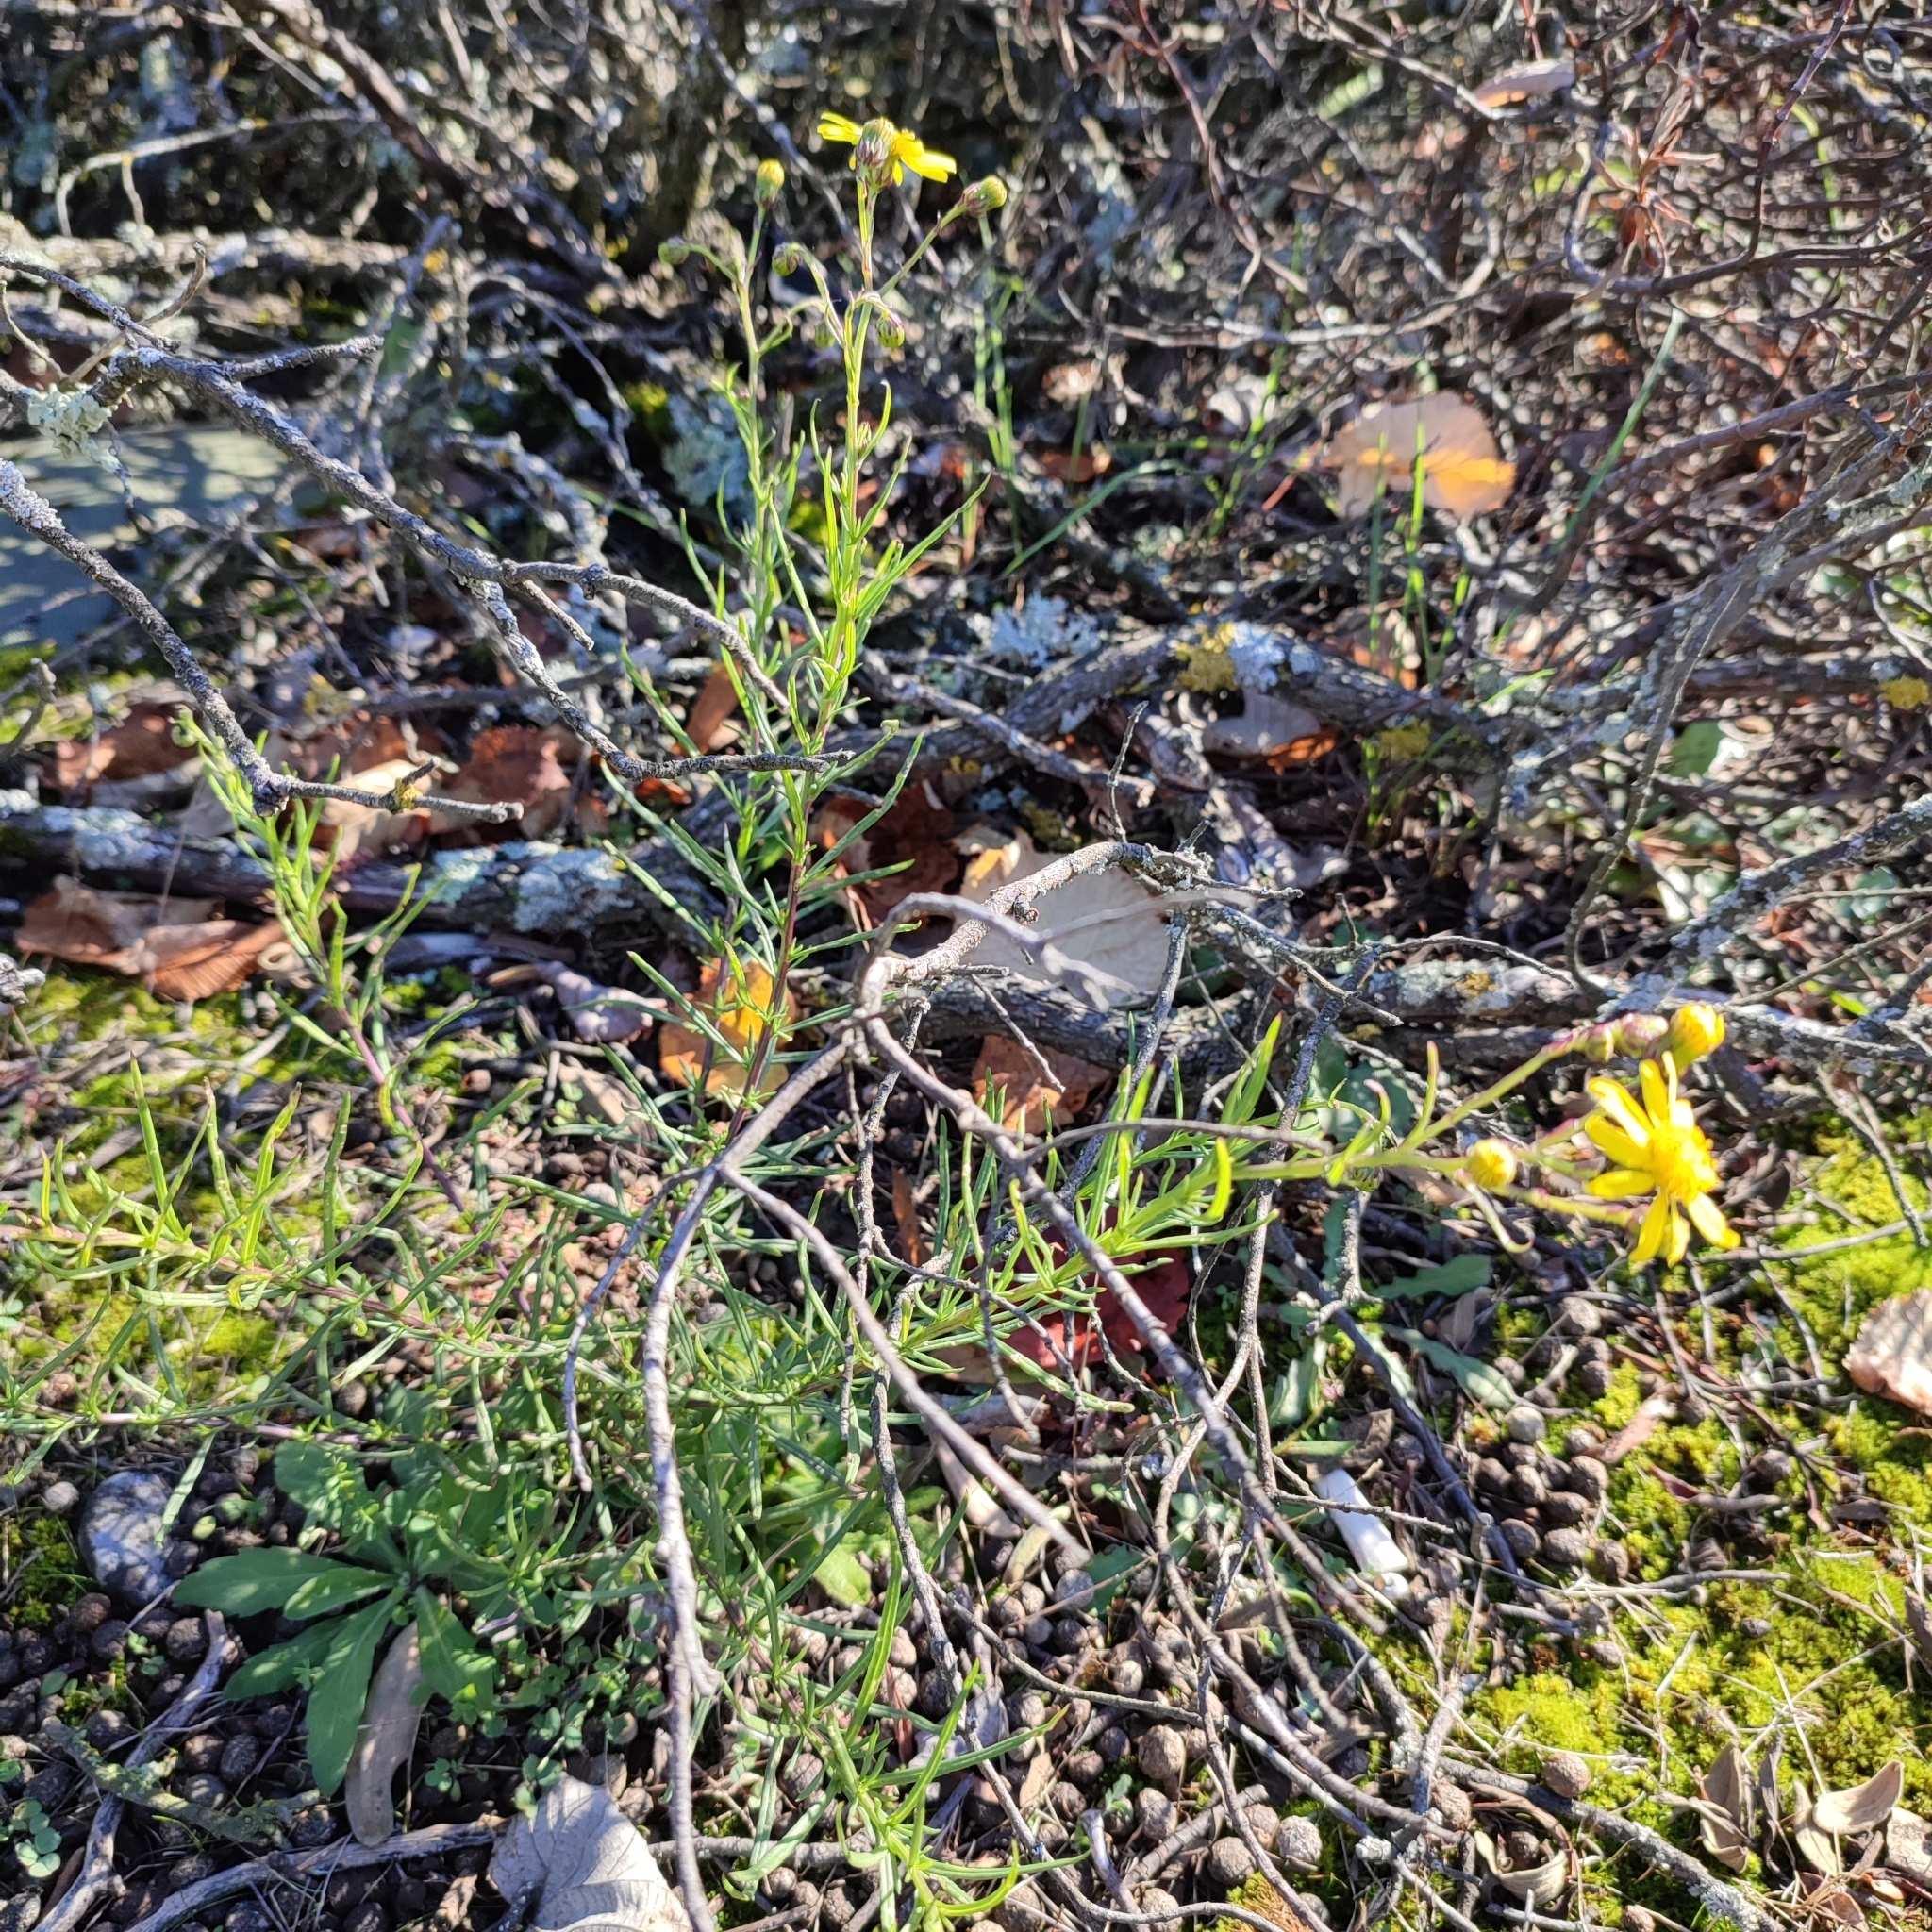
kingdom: Plantae
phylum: Tracheophyta
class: Magnoliopsida
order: Asterales
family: Asteraceae
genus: Senecio
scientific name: Senecio inaequidens
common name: Narrow-leaved ragwort
